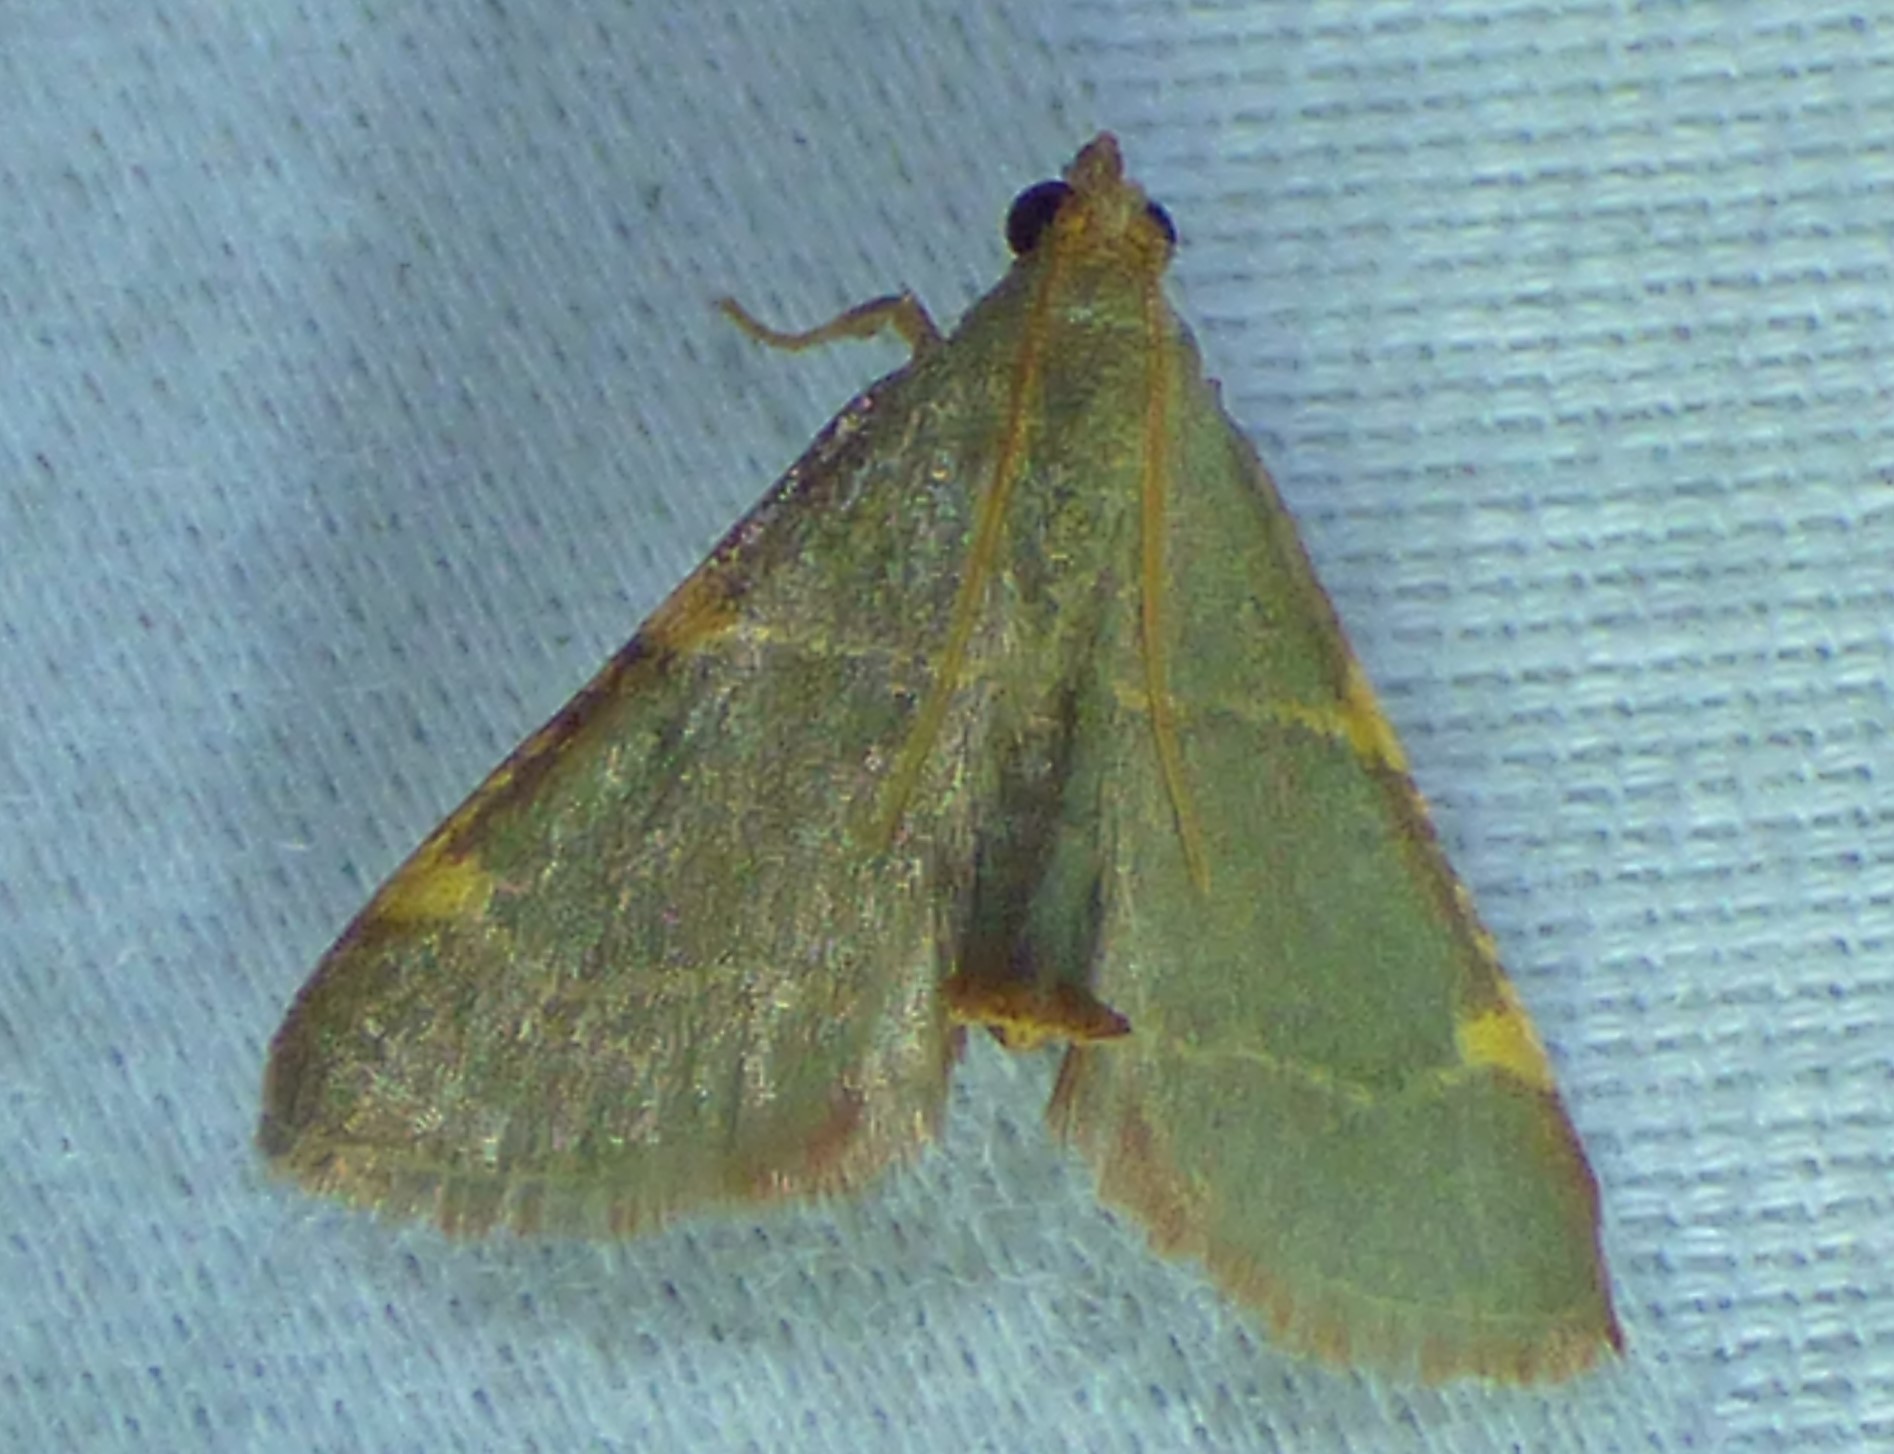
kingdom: Animalia
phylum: Arthropoda
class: Insecta
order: Lepidoptera
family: Pyralidae
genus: Hypsopygia
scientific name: Hypsopygia binodulalis
